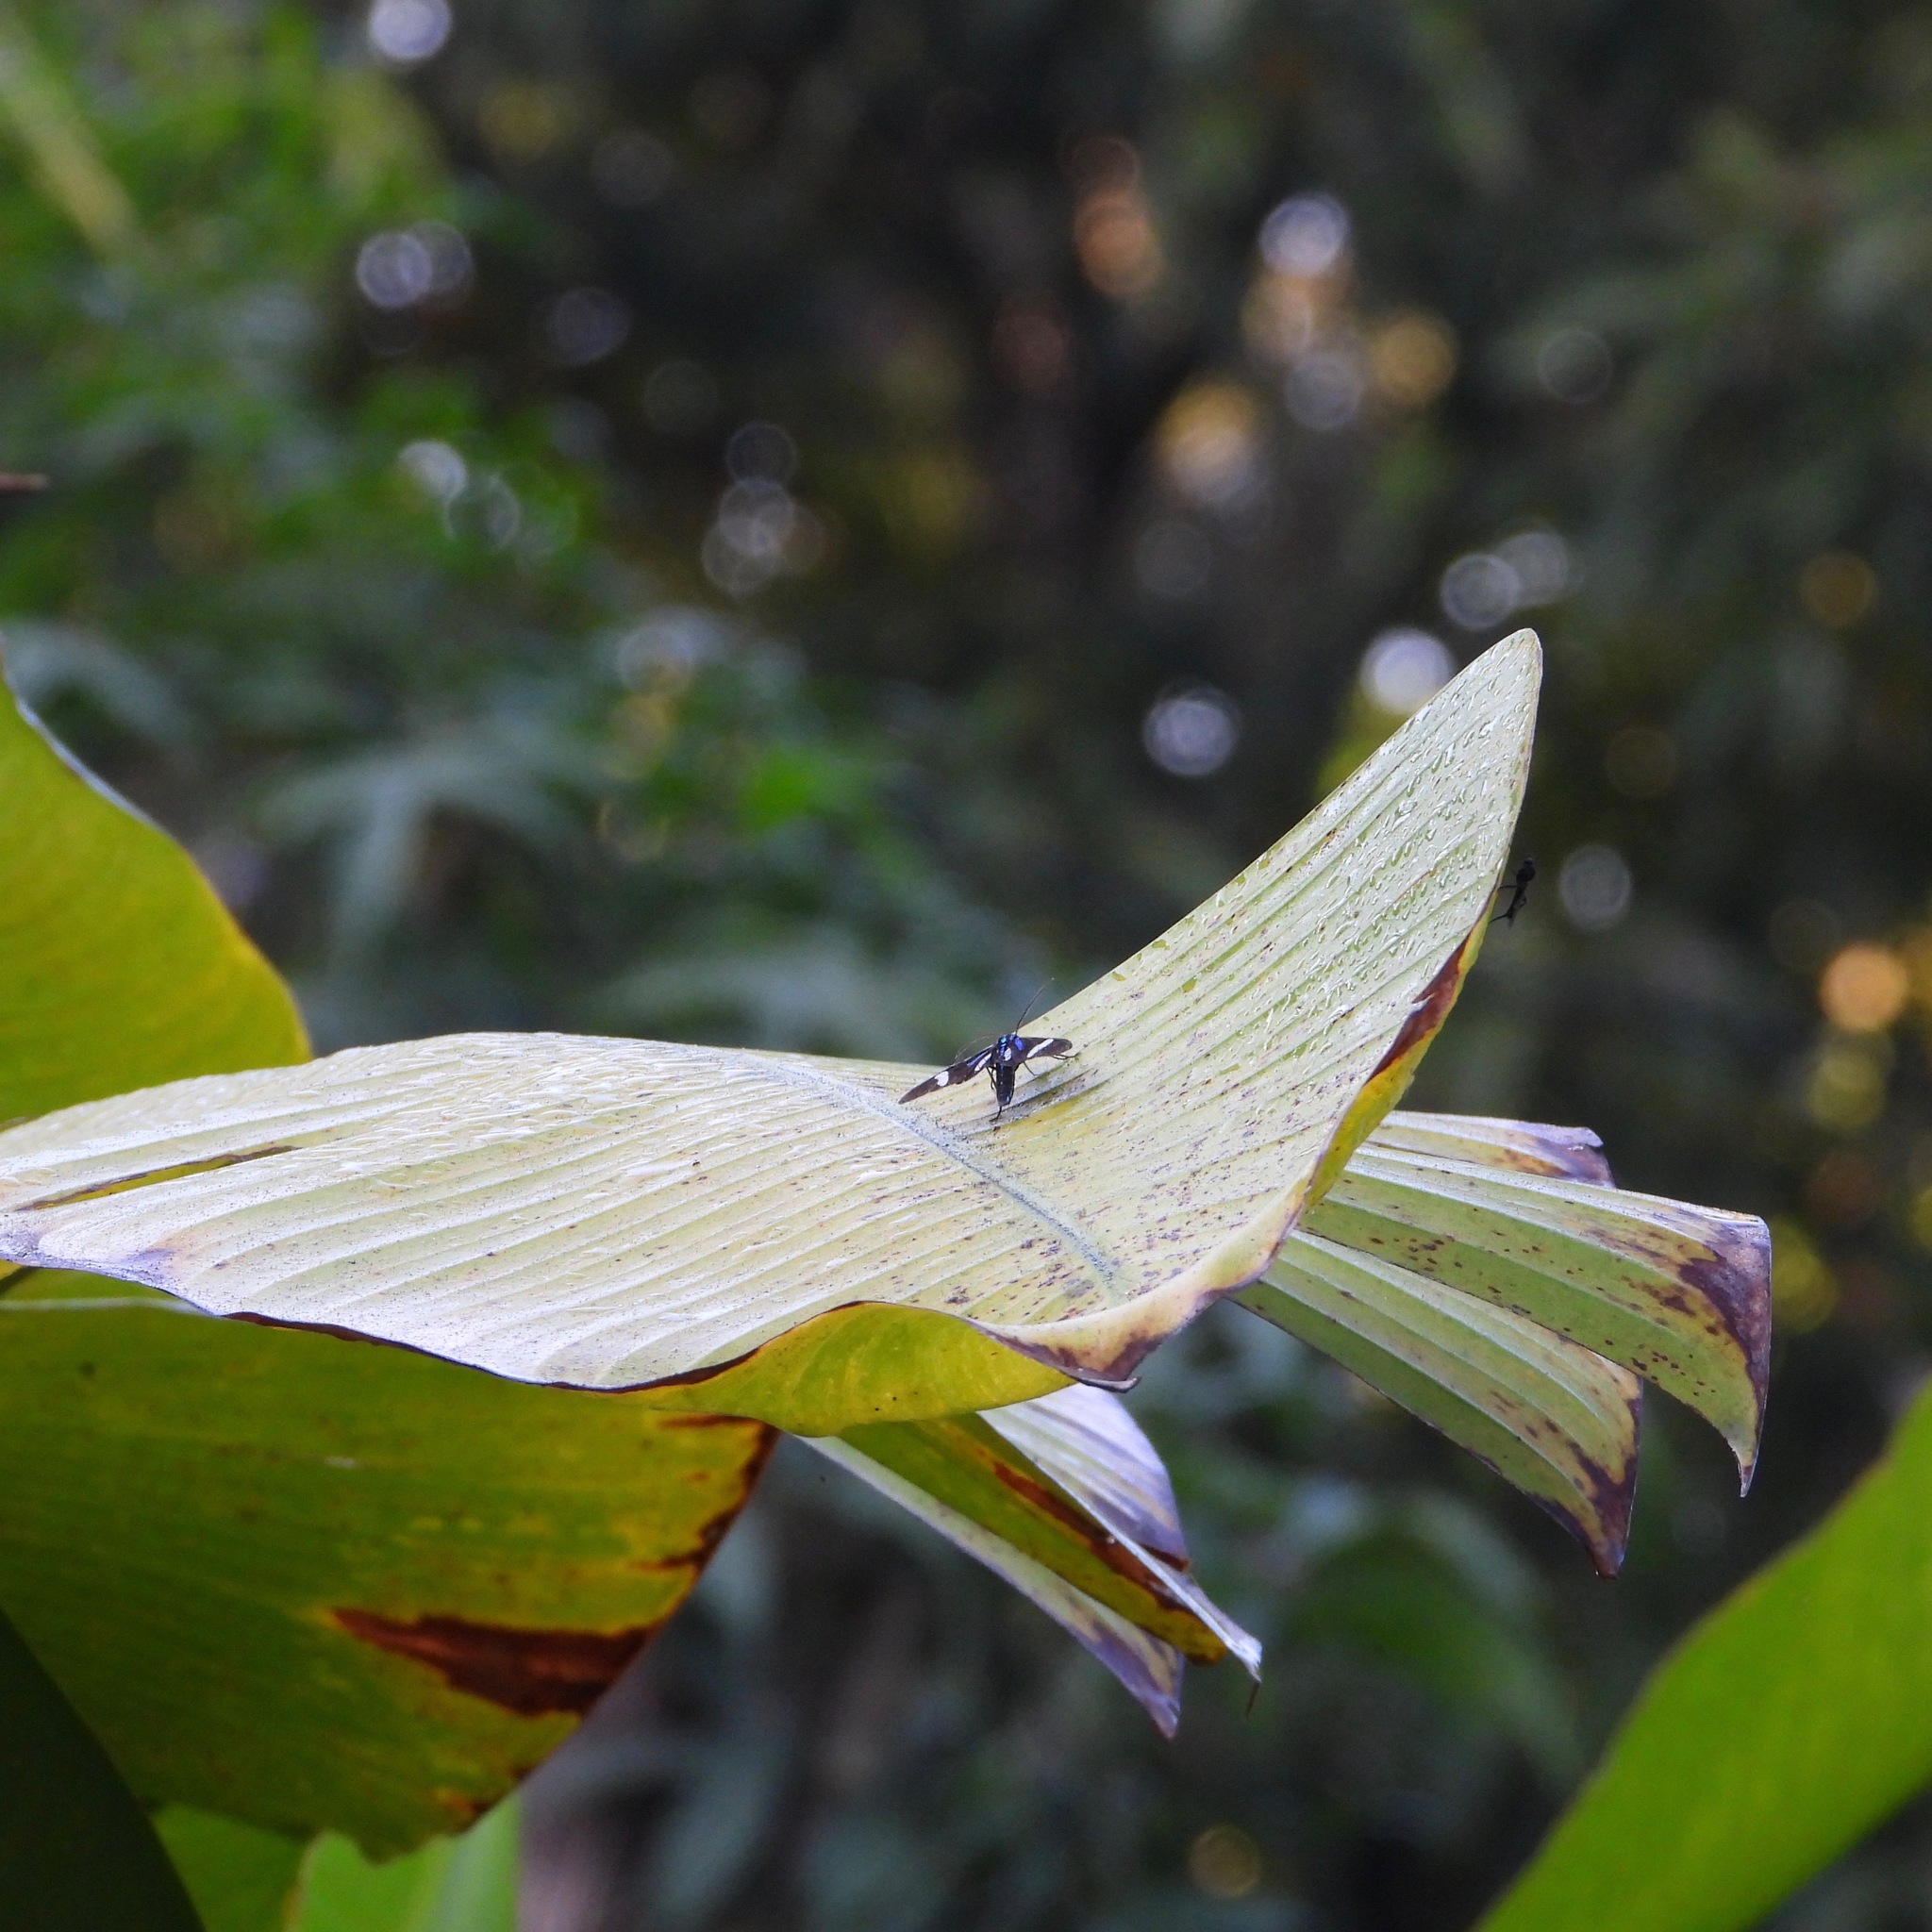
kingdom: Animalia
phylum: Arthropoda
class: Insecta
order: Lepidoptera
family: Erebidae
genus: Mydromera
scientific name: Mydromera isthmia
